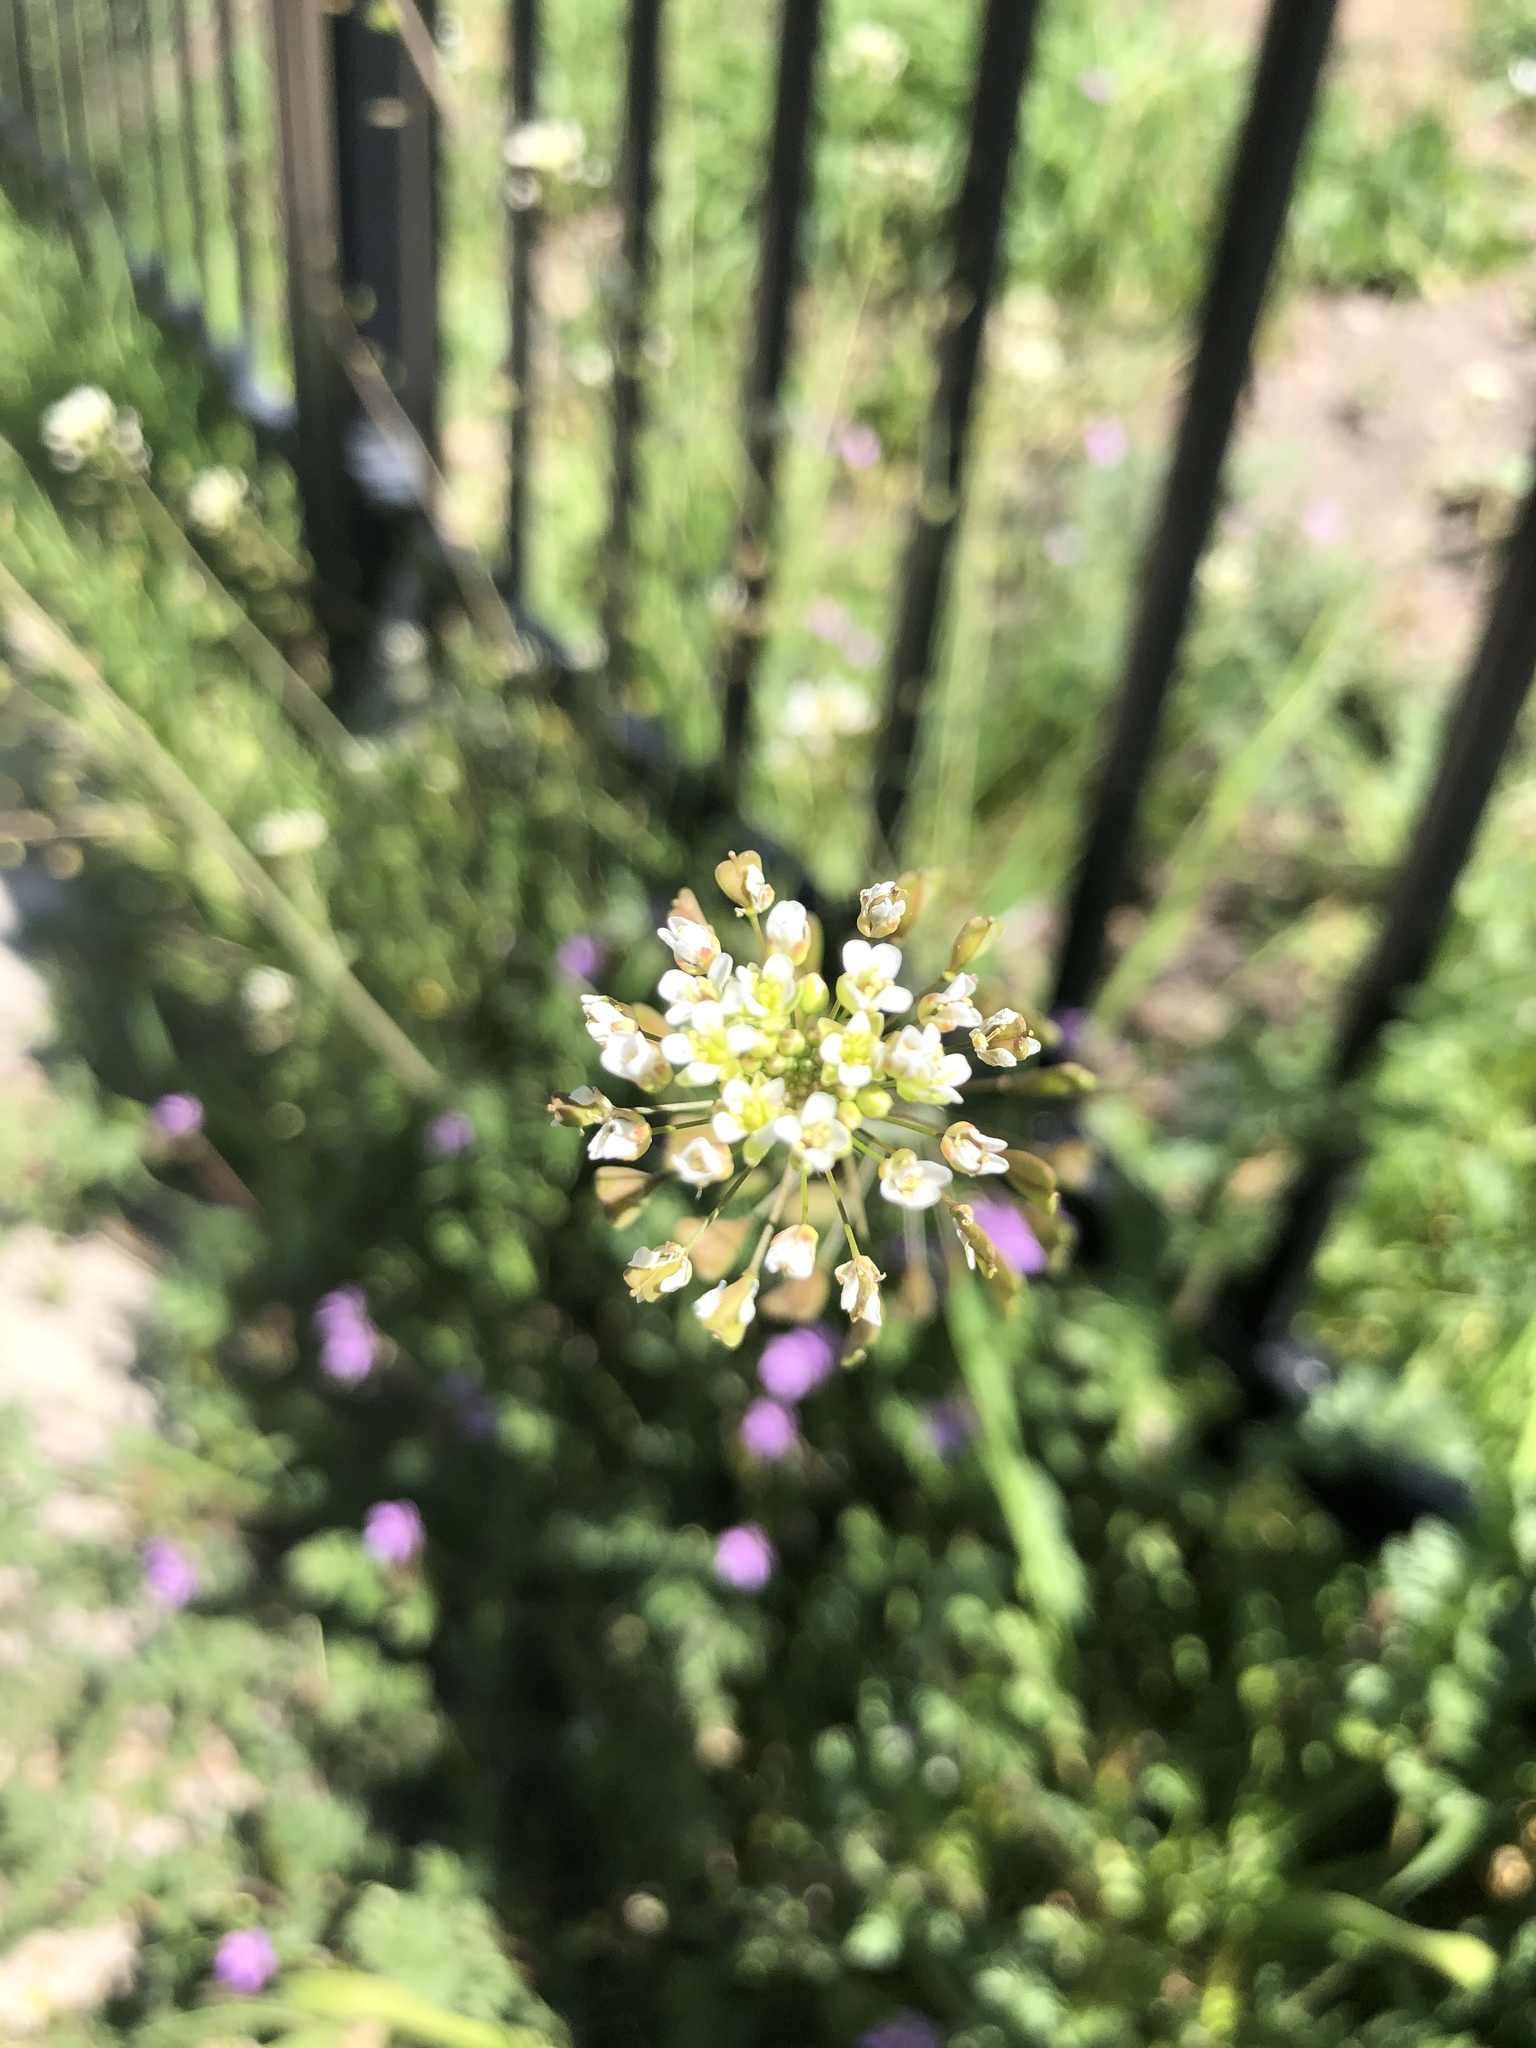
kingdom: Plantae
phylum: Tracheophyta
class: Magnoliopsida
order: Brassicales
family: Brassicaceae
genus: Capsella
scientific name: Capsella bursa-pastoris
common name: Shepherd's purse
